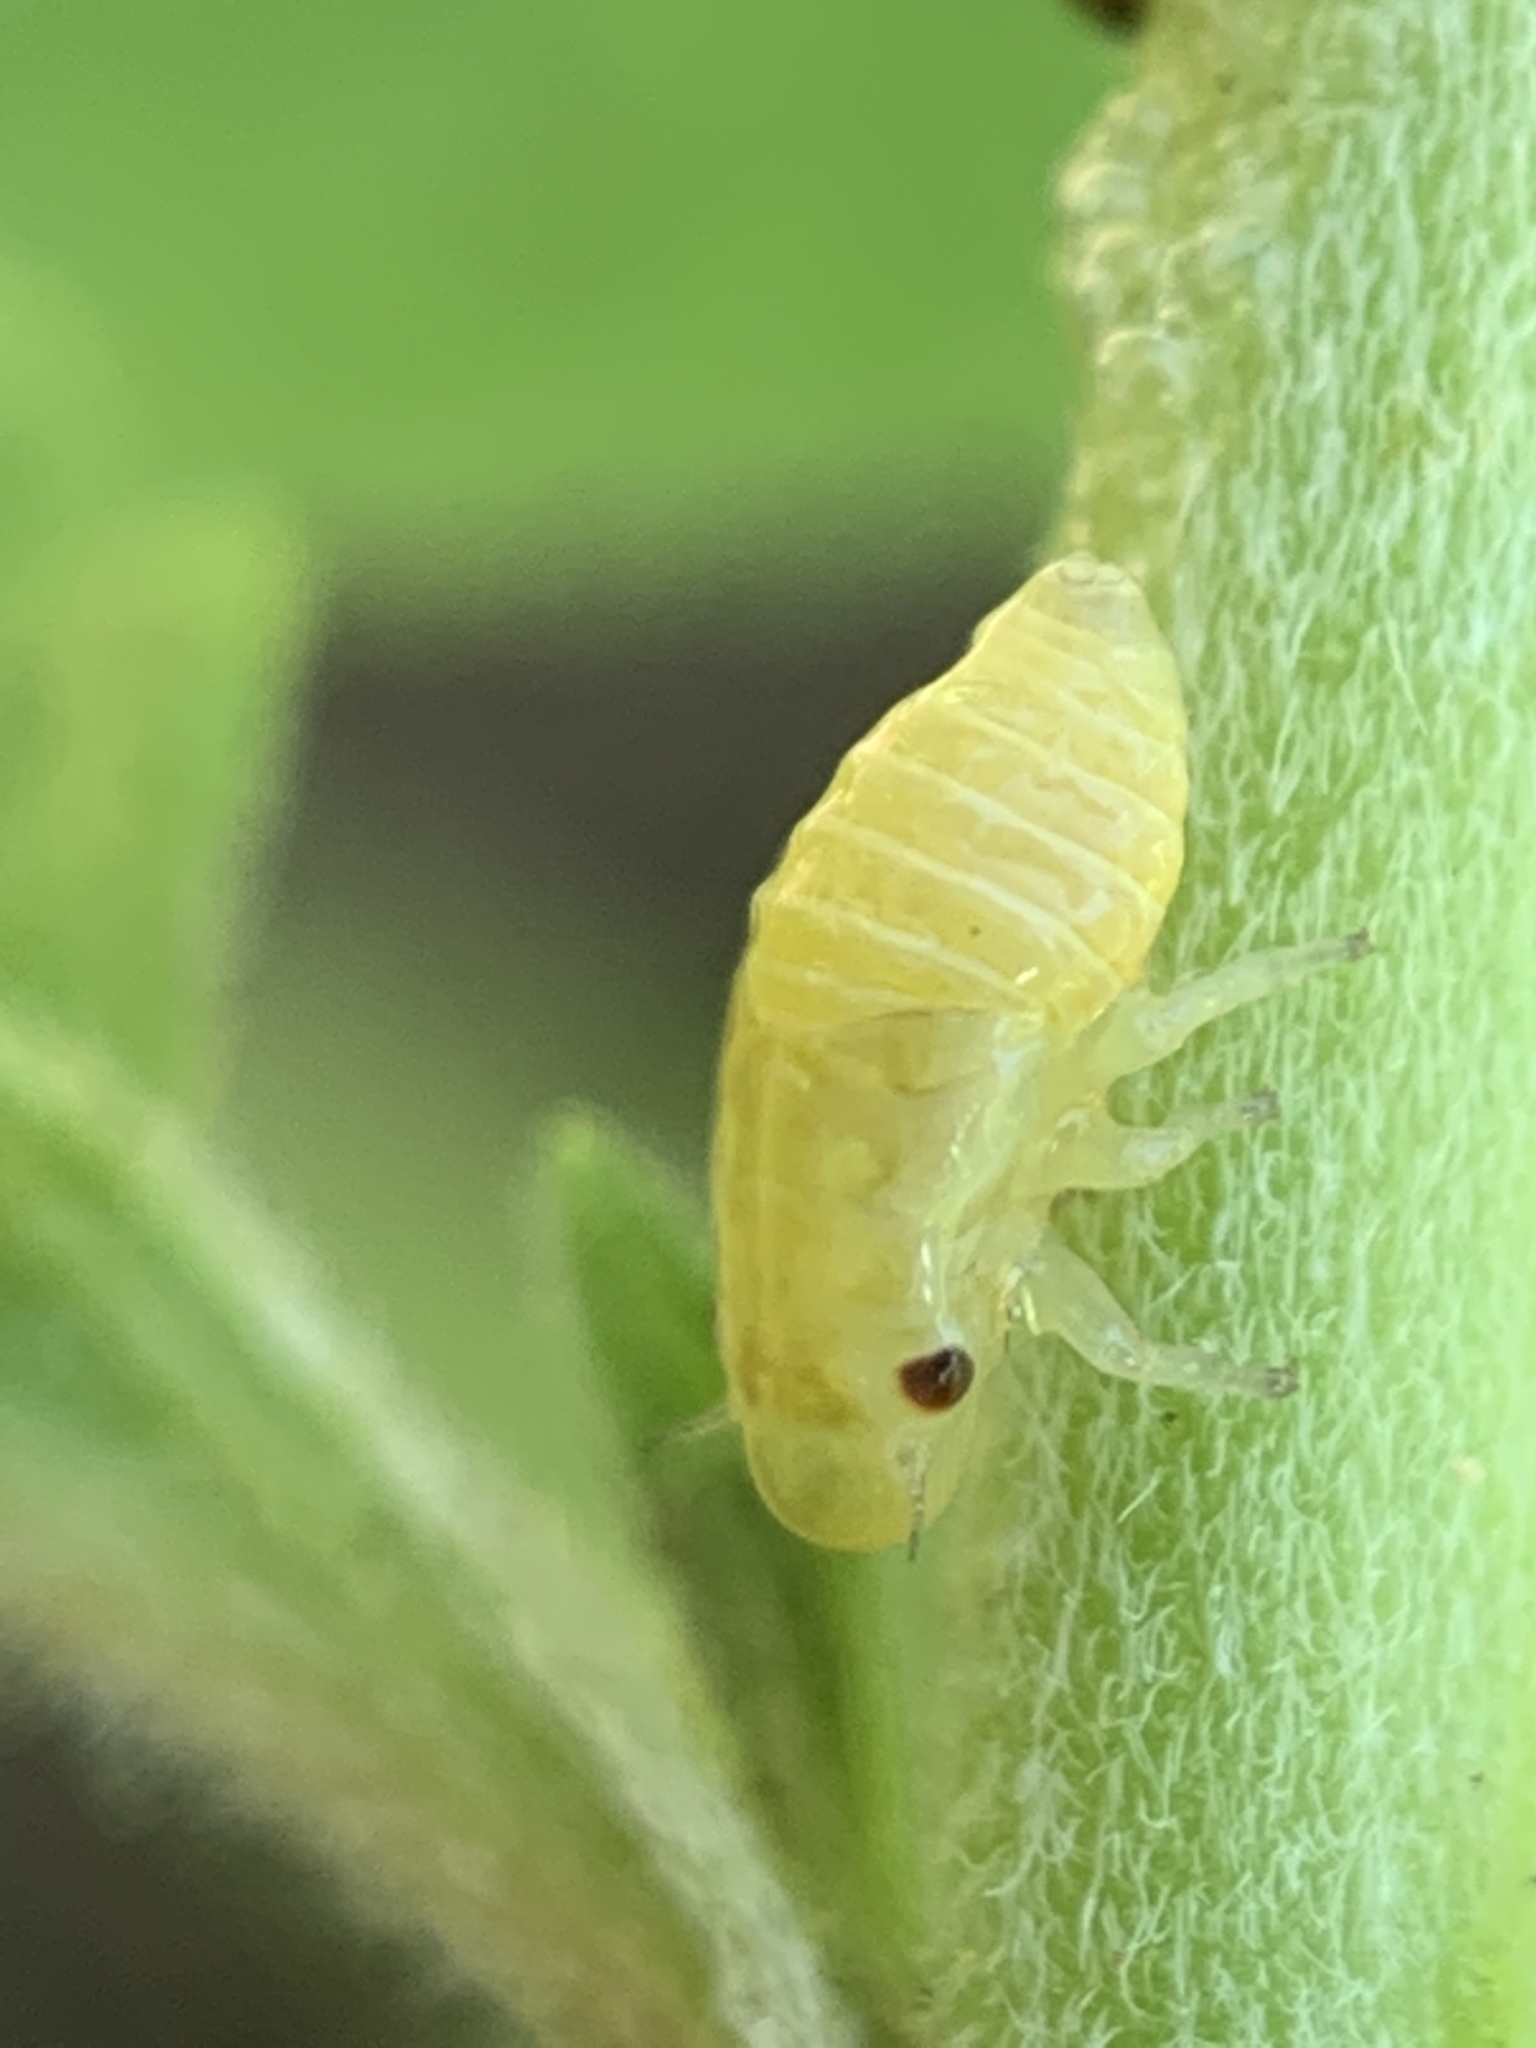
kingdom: Animalia
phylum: Arthropoda
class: Insecta
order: Hemiptera
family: Aphrophoridae
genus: Philaenus
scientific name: Philaenus spumarius
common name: Meadow spittlebug
